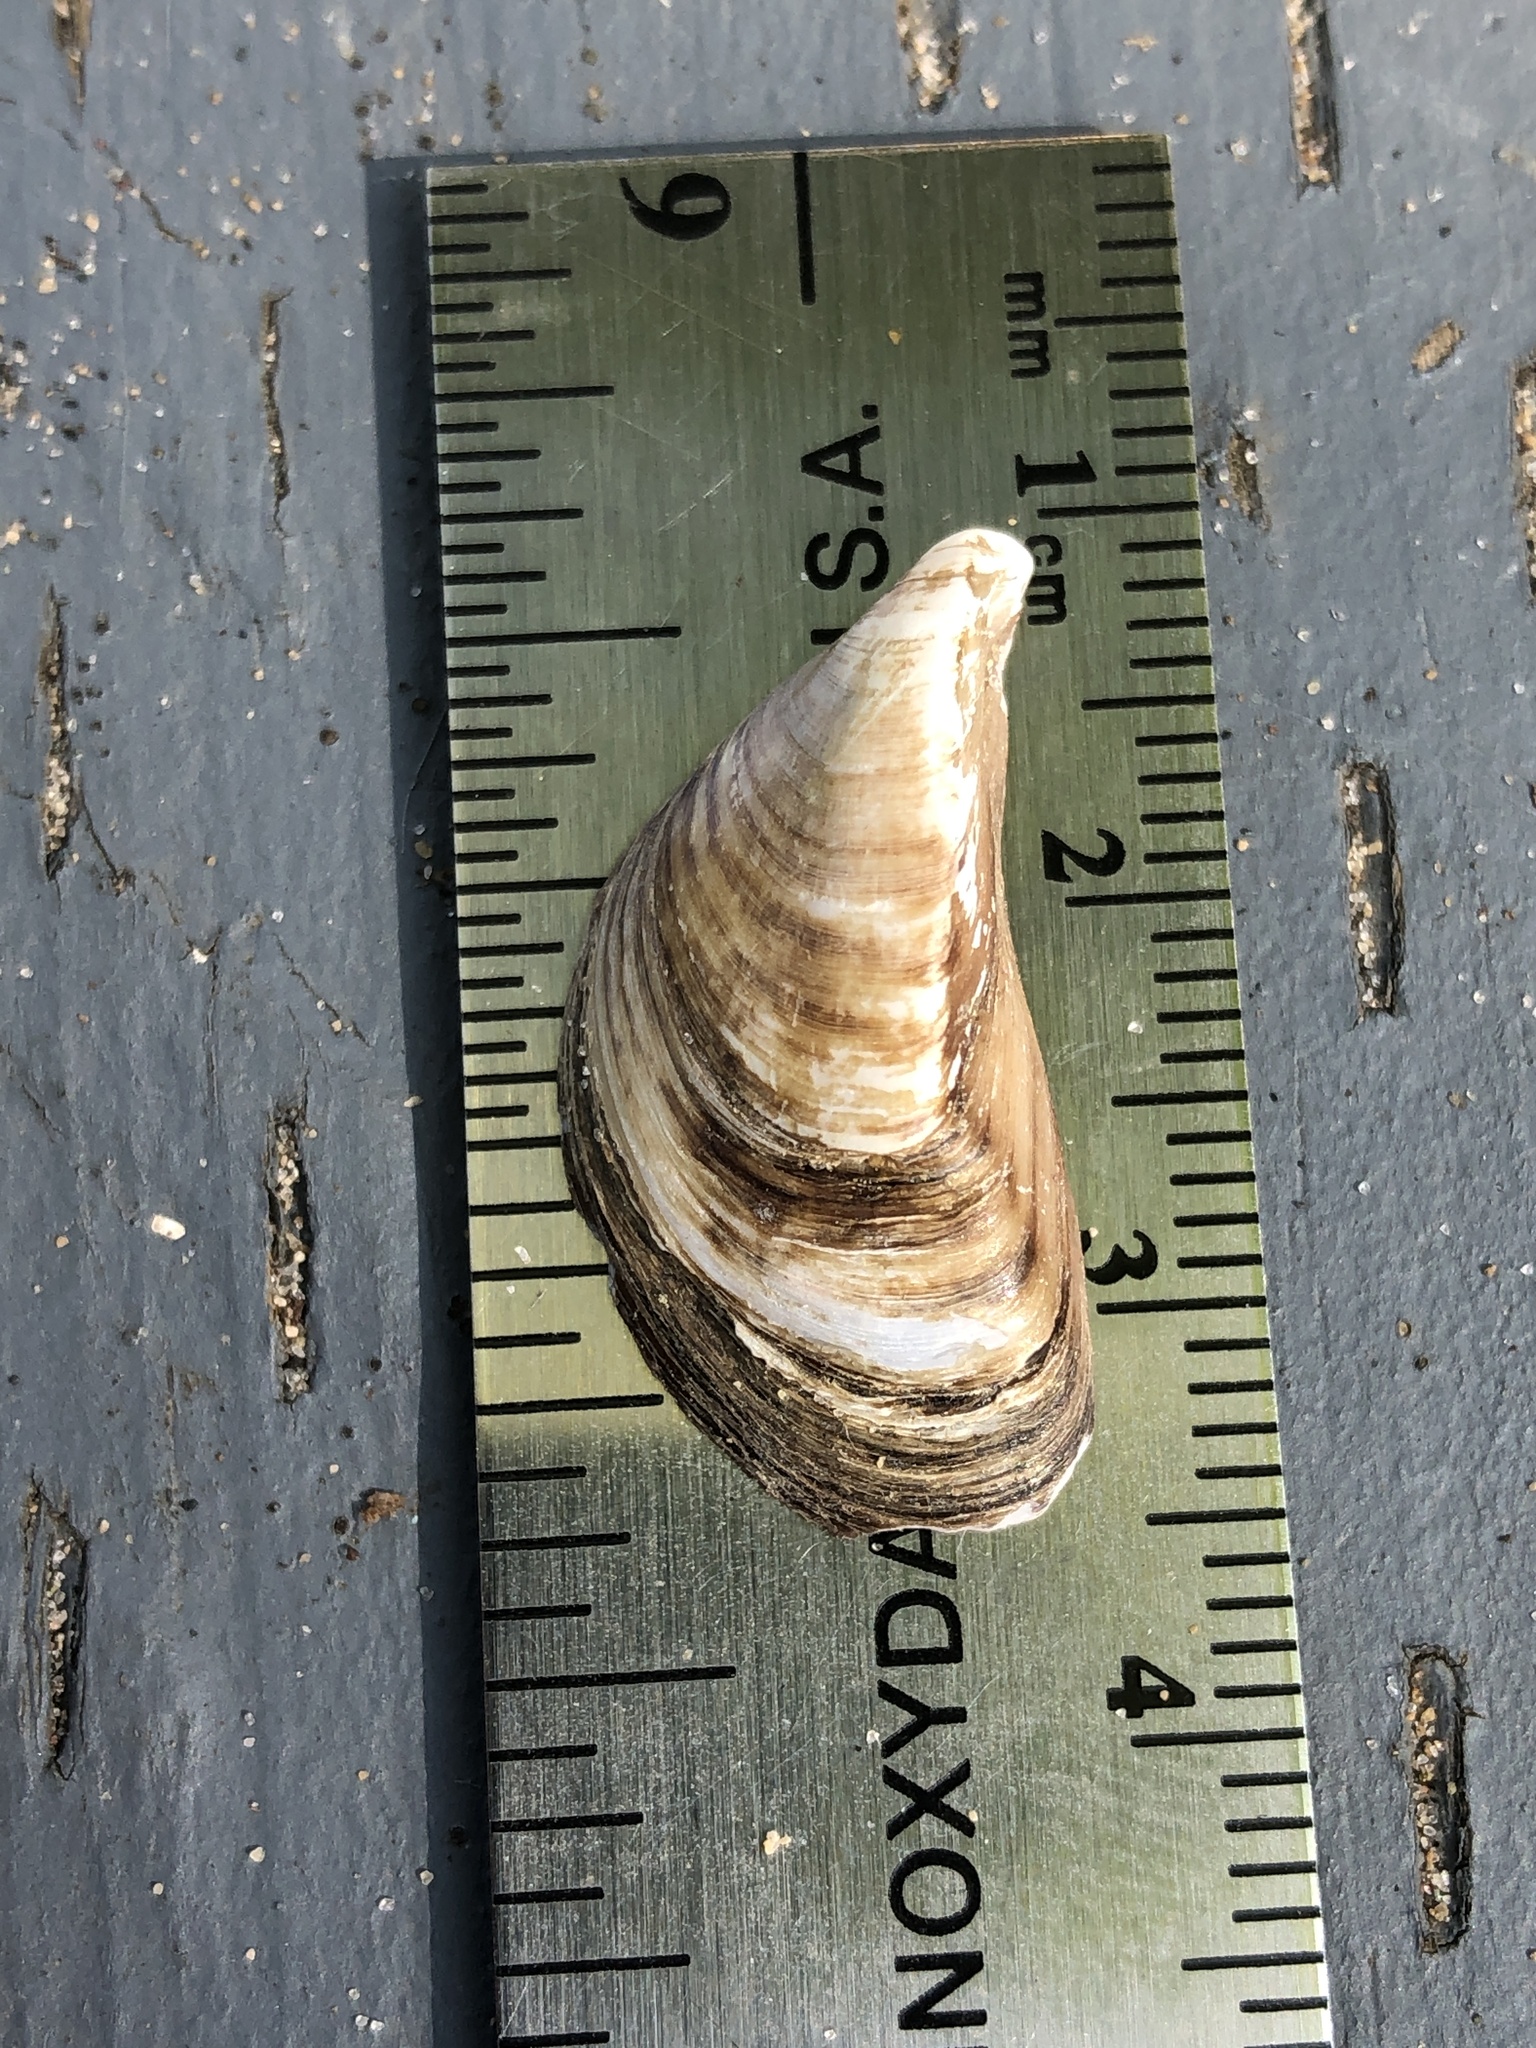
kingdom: Animalia
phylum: Mollusca
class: Bivalvia
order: Myida
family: Dreissenidae
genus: Dreissena
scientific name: Dreissena polymorpha
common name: Zebra mussel
